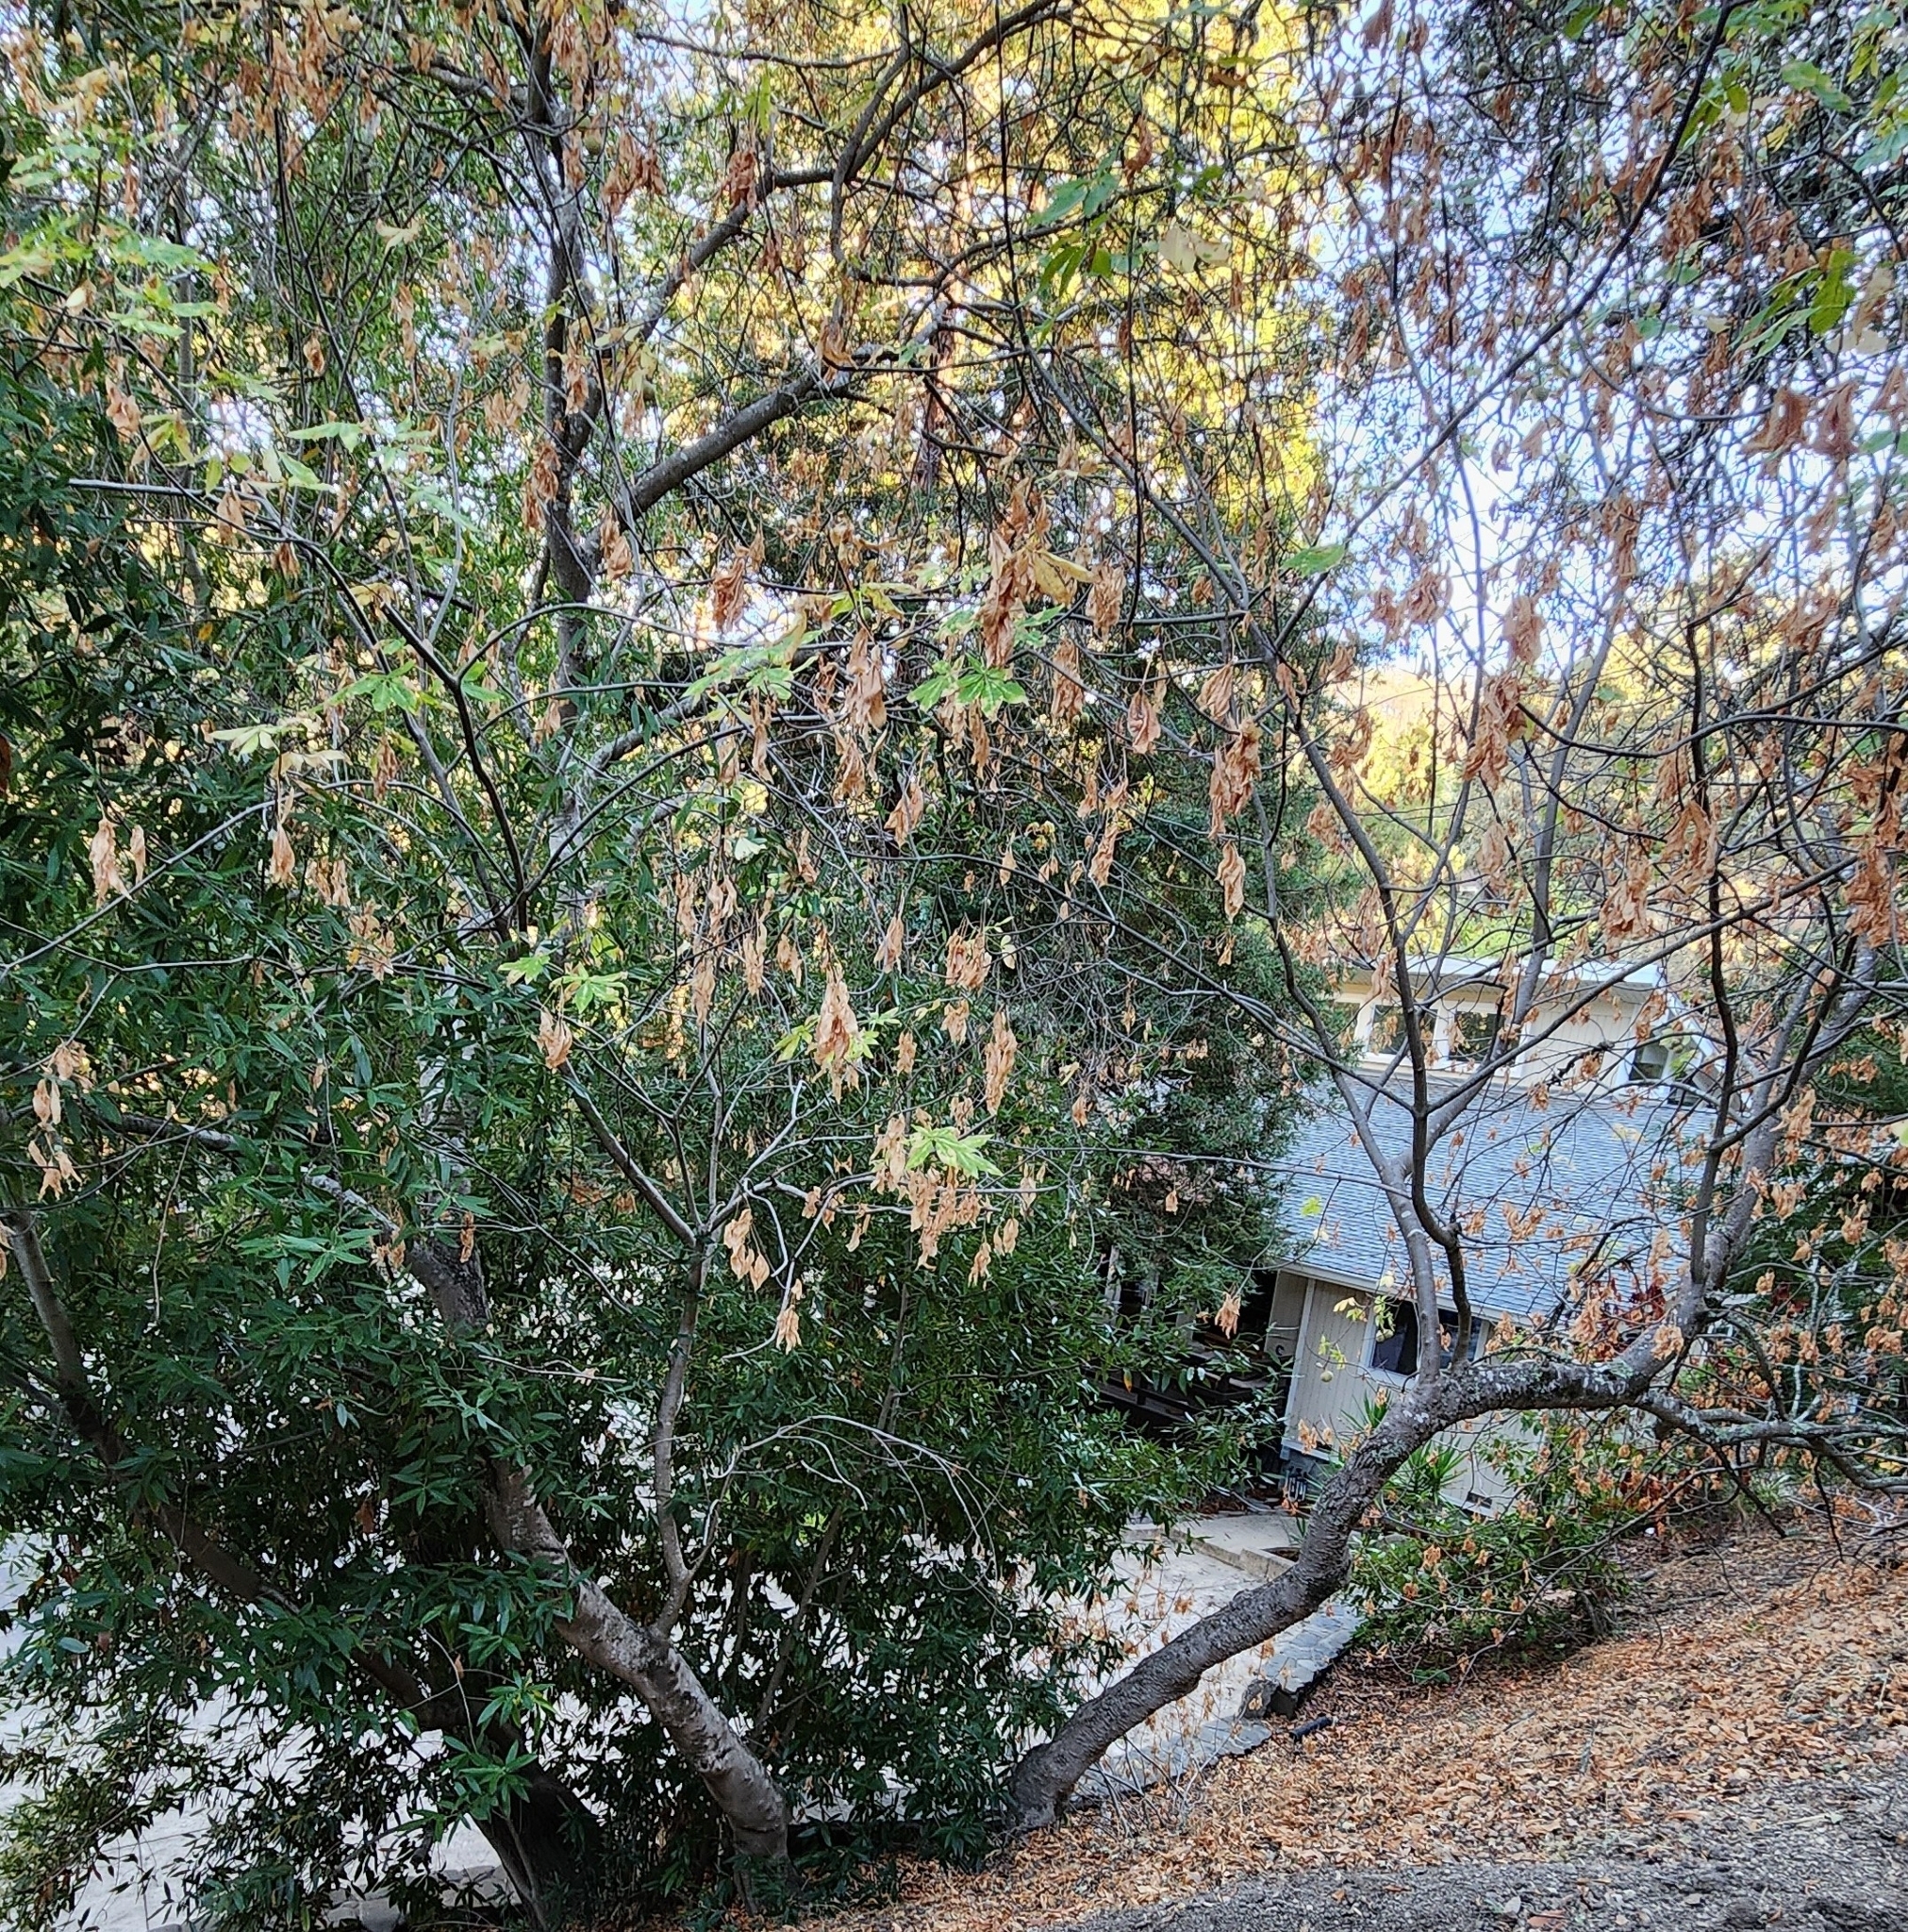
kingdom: Plantae
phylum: Tracheophyta
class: Magnoliopsida
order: Sapindales
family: Sapindaceae
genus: Aesculus
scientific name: Aesculus californica
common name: California buckeye
